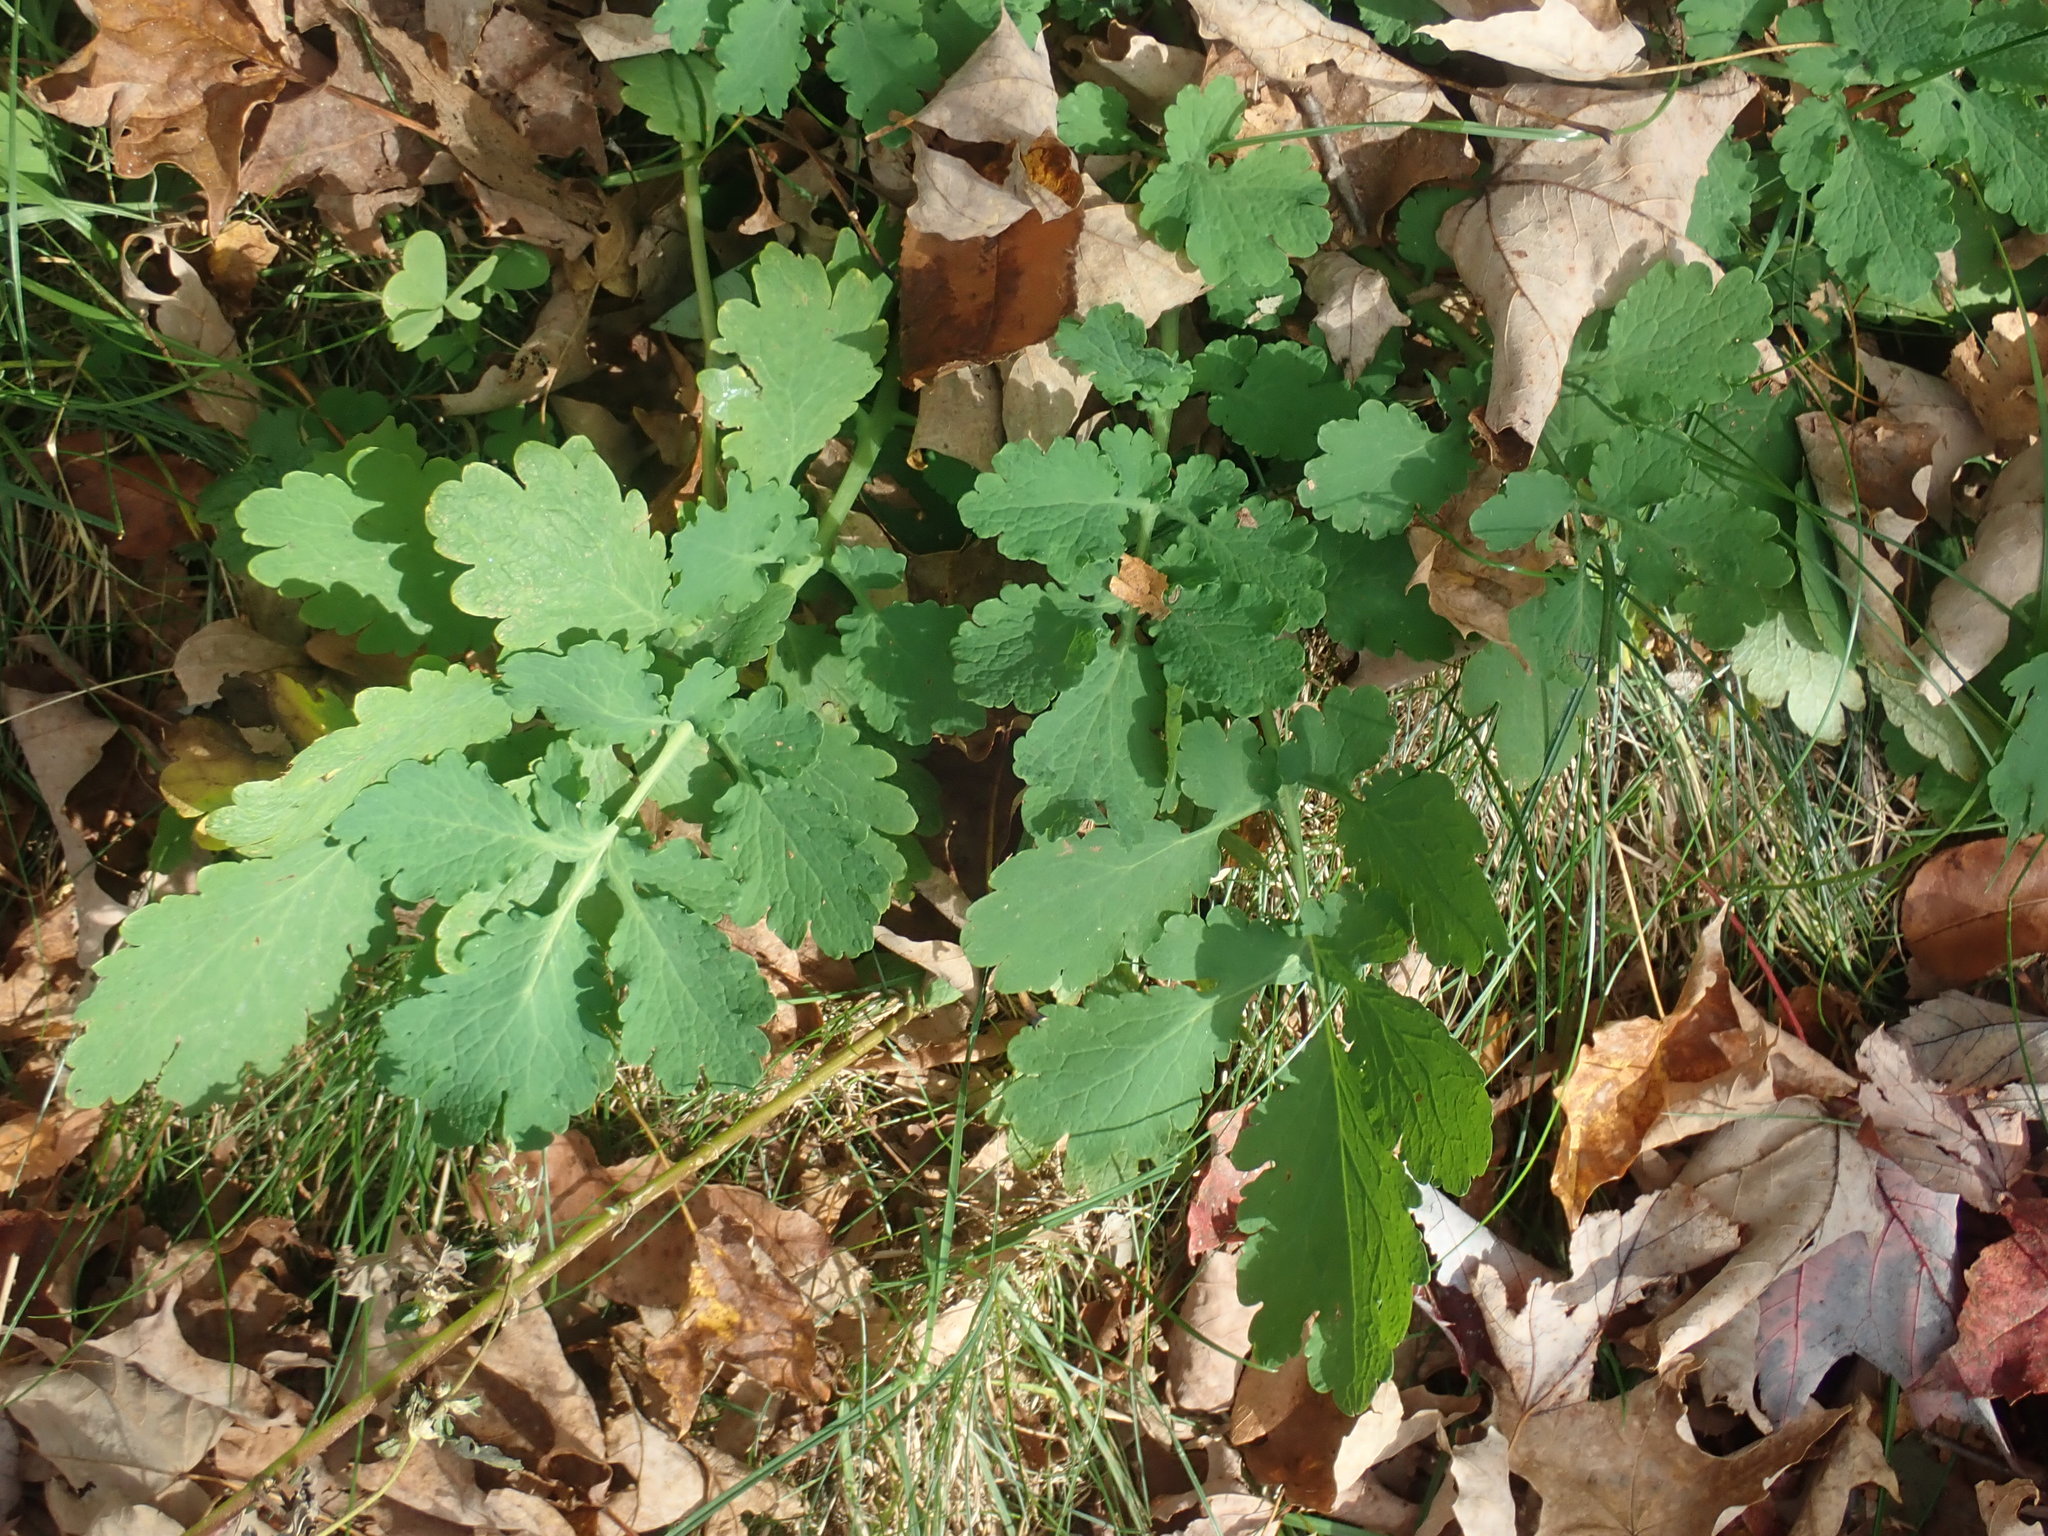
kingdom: Plantae
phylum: Tracheophyta
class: Magnoliopsida
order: Ranunculales
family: Papaveraceae
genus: Chelidonium
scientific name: Chelidonium majus
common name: Greater celandine
